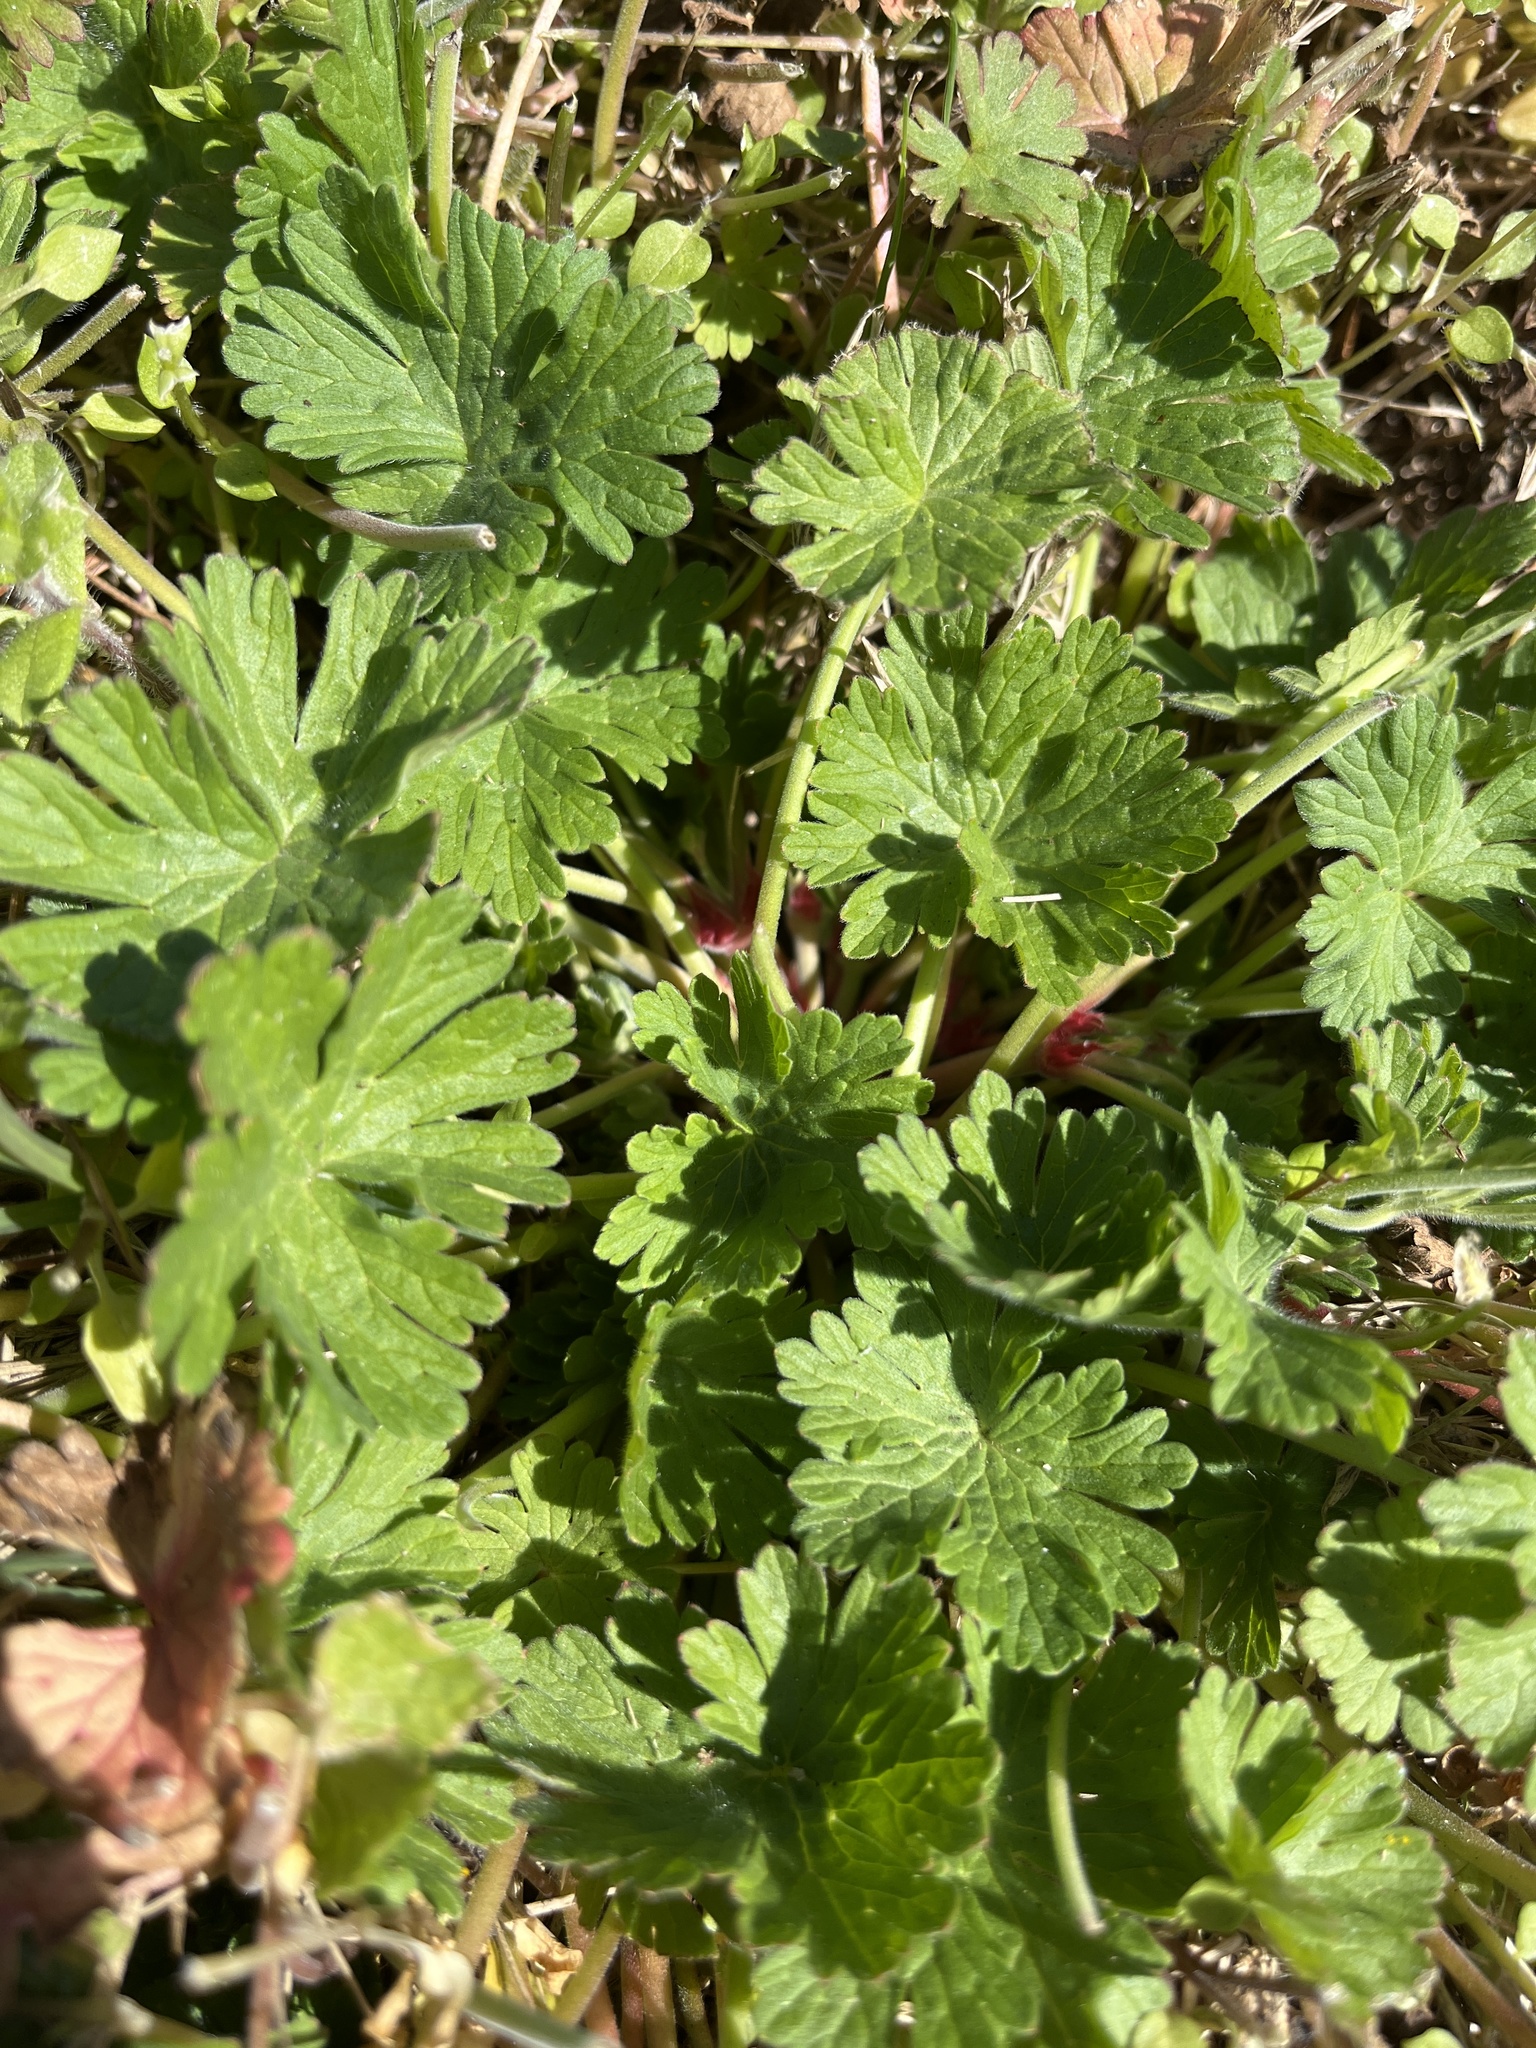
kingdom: Plantae
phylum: Tracheophyta
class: Magnoliopsida
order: Malpighiales
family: Violaceae
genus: Viola
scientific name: Viola rafinesquei
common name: American field pansy
